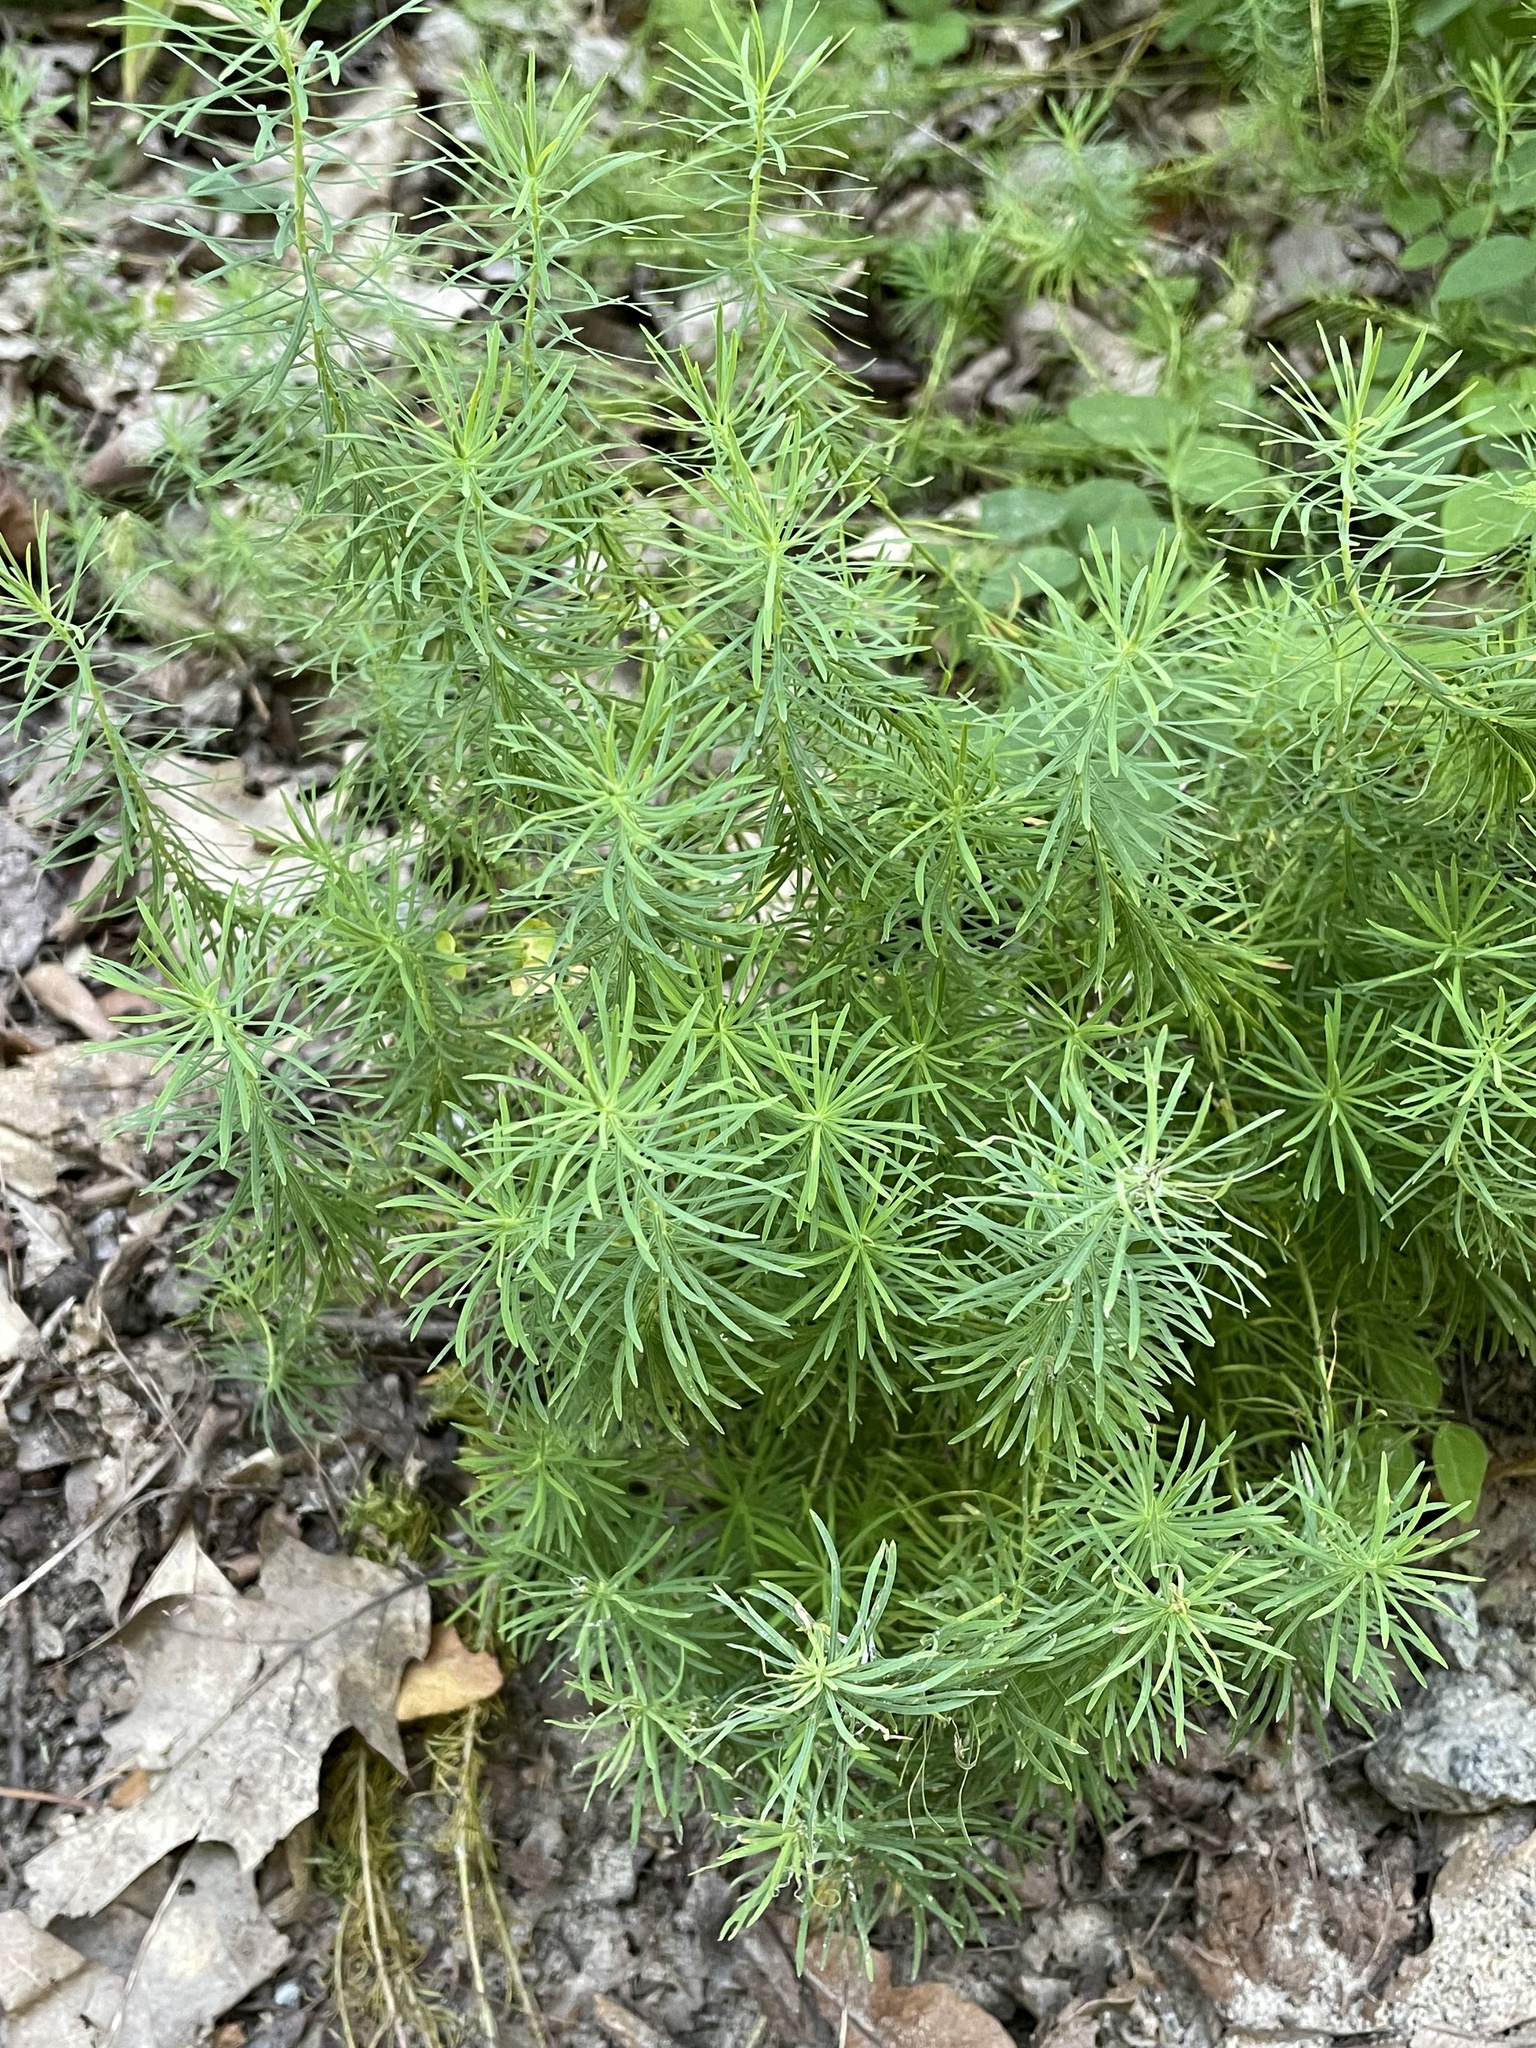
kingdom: Plantae
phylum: Tracheophyta
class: Magnoliopsida
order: Malpighiales
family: Euphorbiaceae
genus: Euphorbia
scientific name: Euphorbia cyparissias
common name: Cypress spurge
